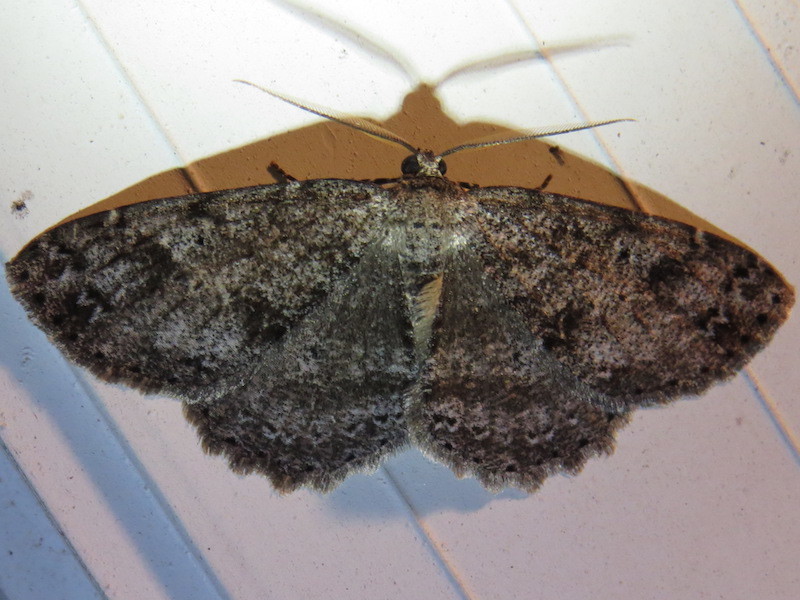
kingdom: Animalia
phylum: Arthropoda
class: Insecta
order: Lepidoptera
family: Geometridae
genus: Melanolophia
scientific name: Melanolophia canadaria
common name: Canadian melanolophia
